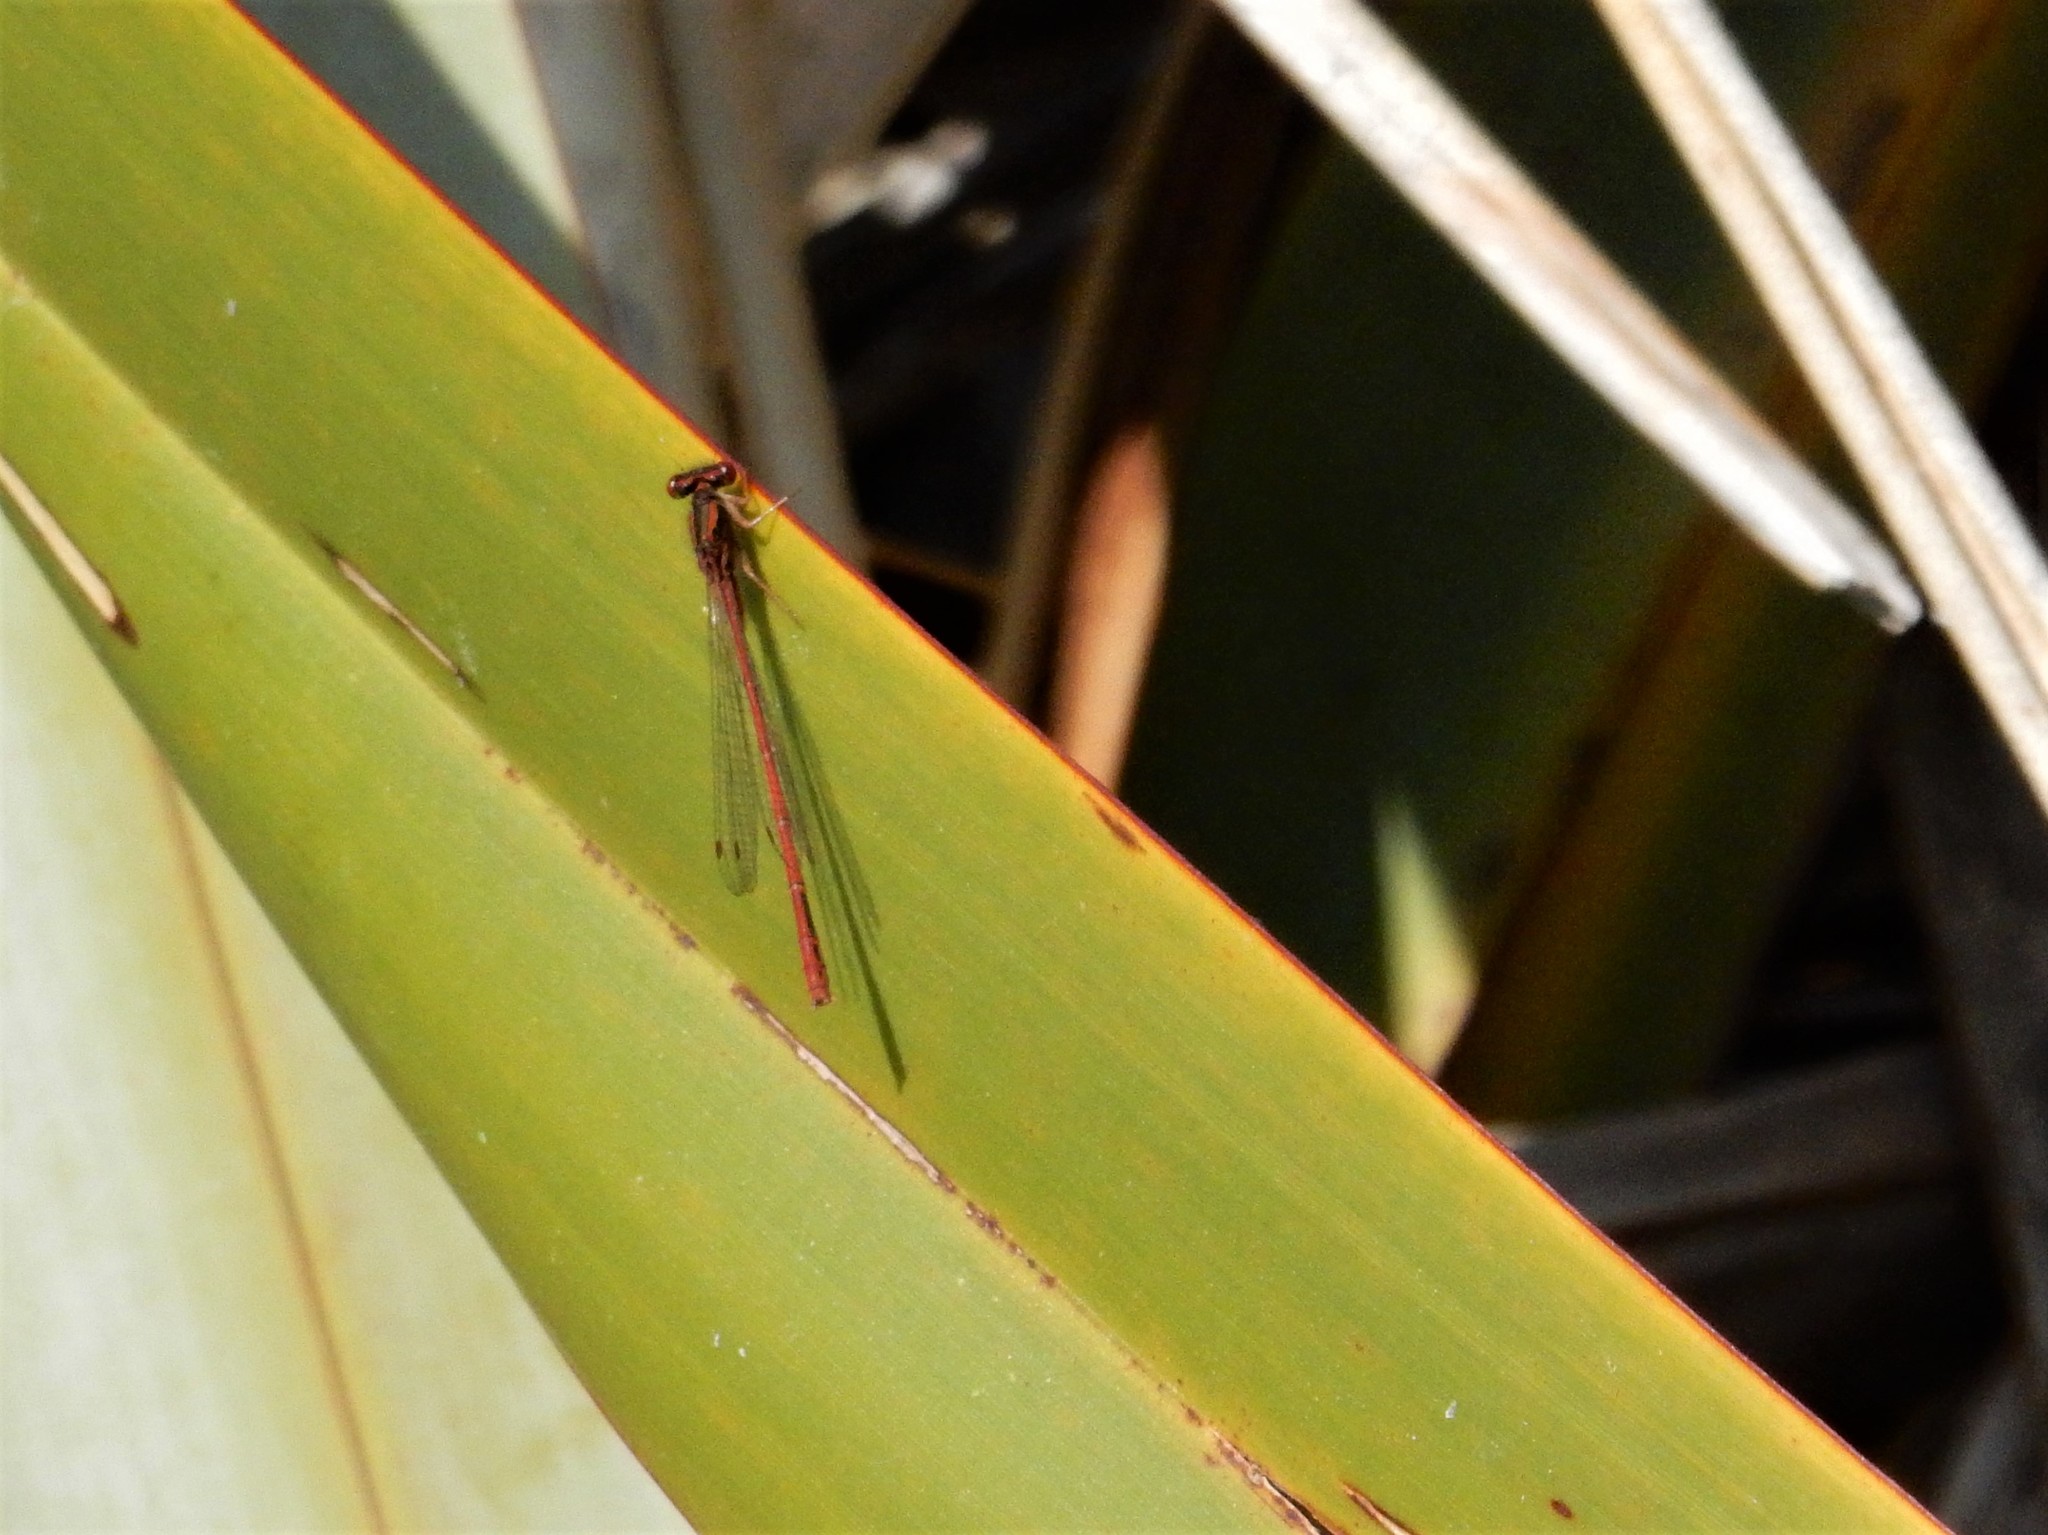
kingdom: Animalia
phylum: Arthropoda
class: Insecta
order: Odonata
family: Coenagrionidae
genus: Xanthocnemis
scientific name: Xanthocnemis zealandica
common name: Common redcoat damselfly
